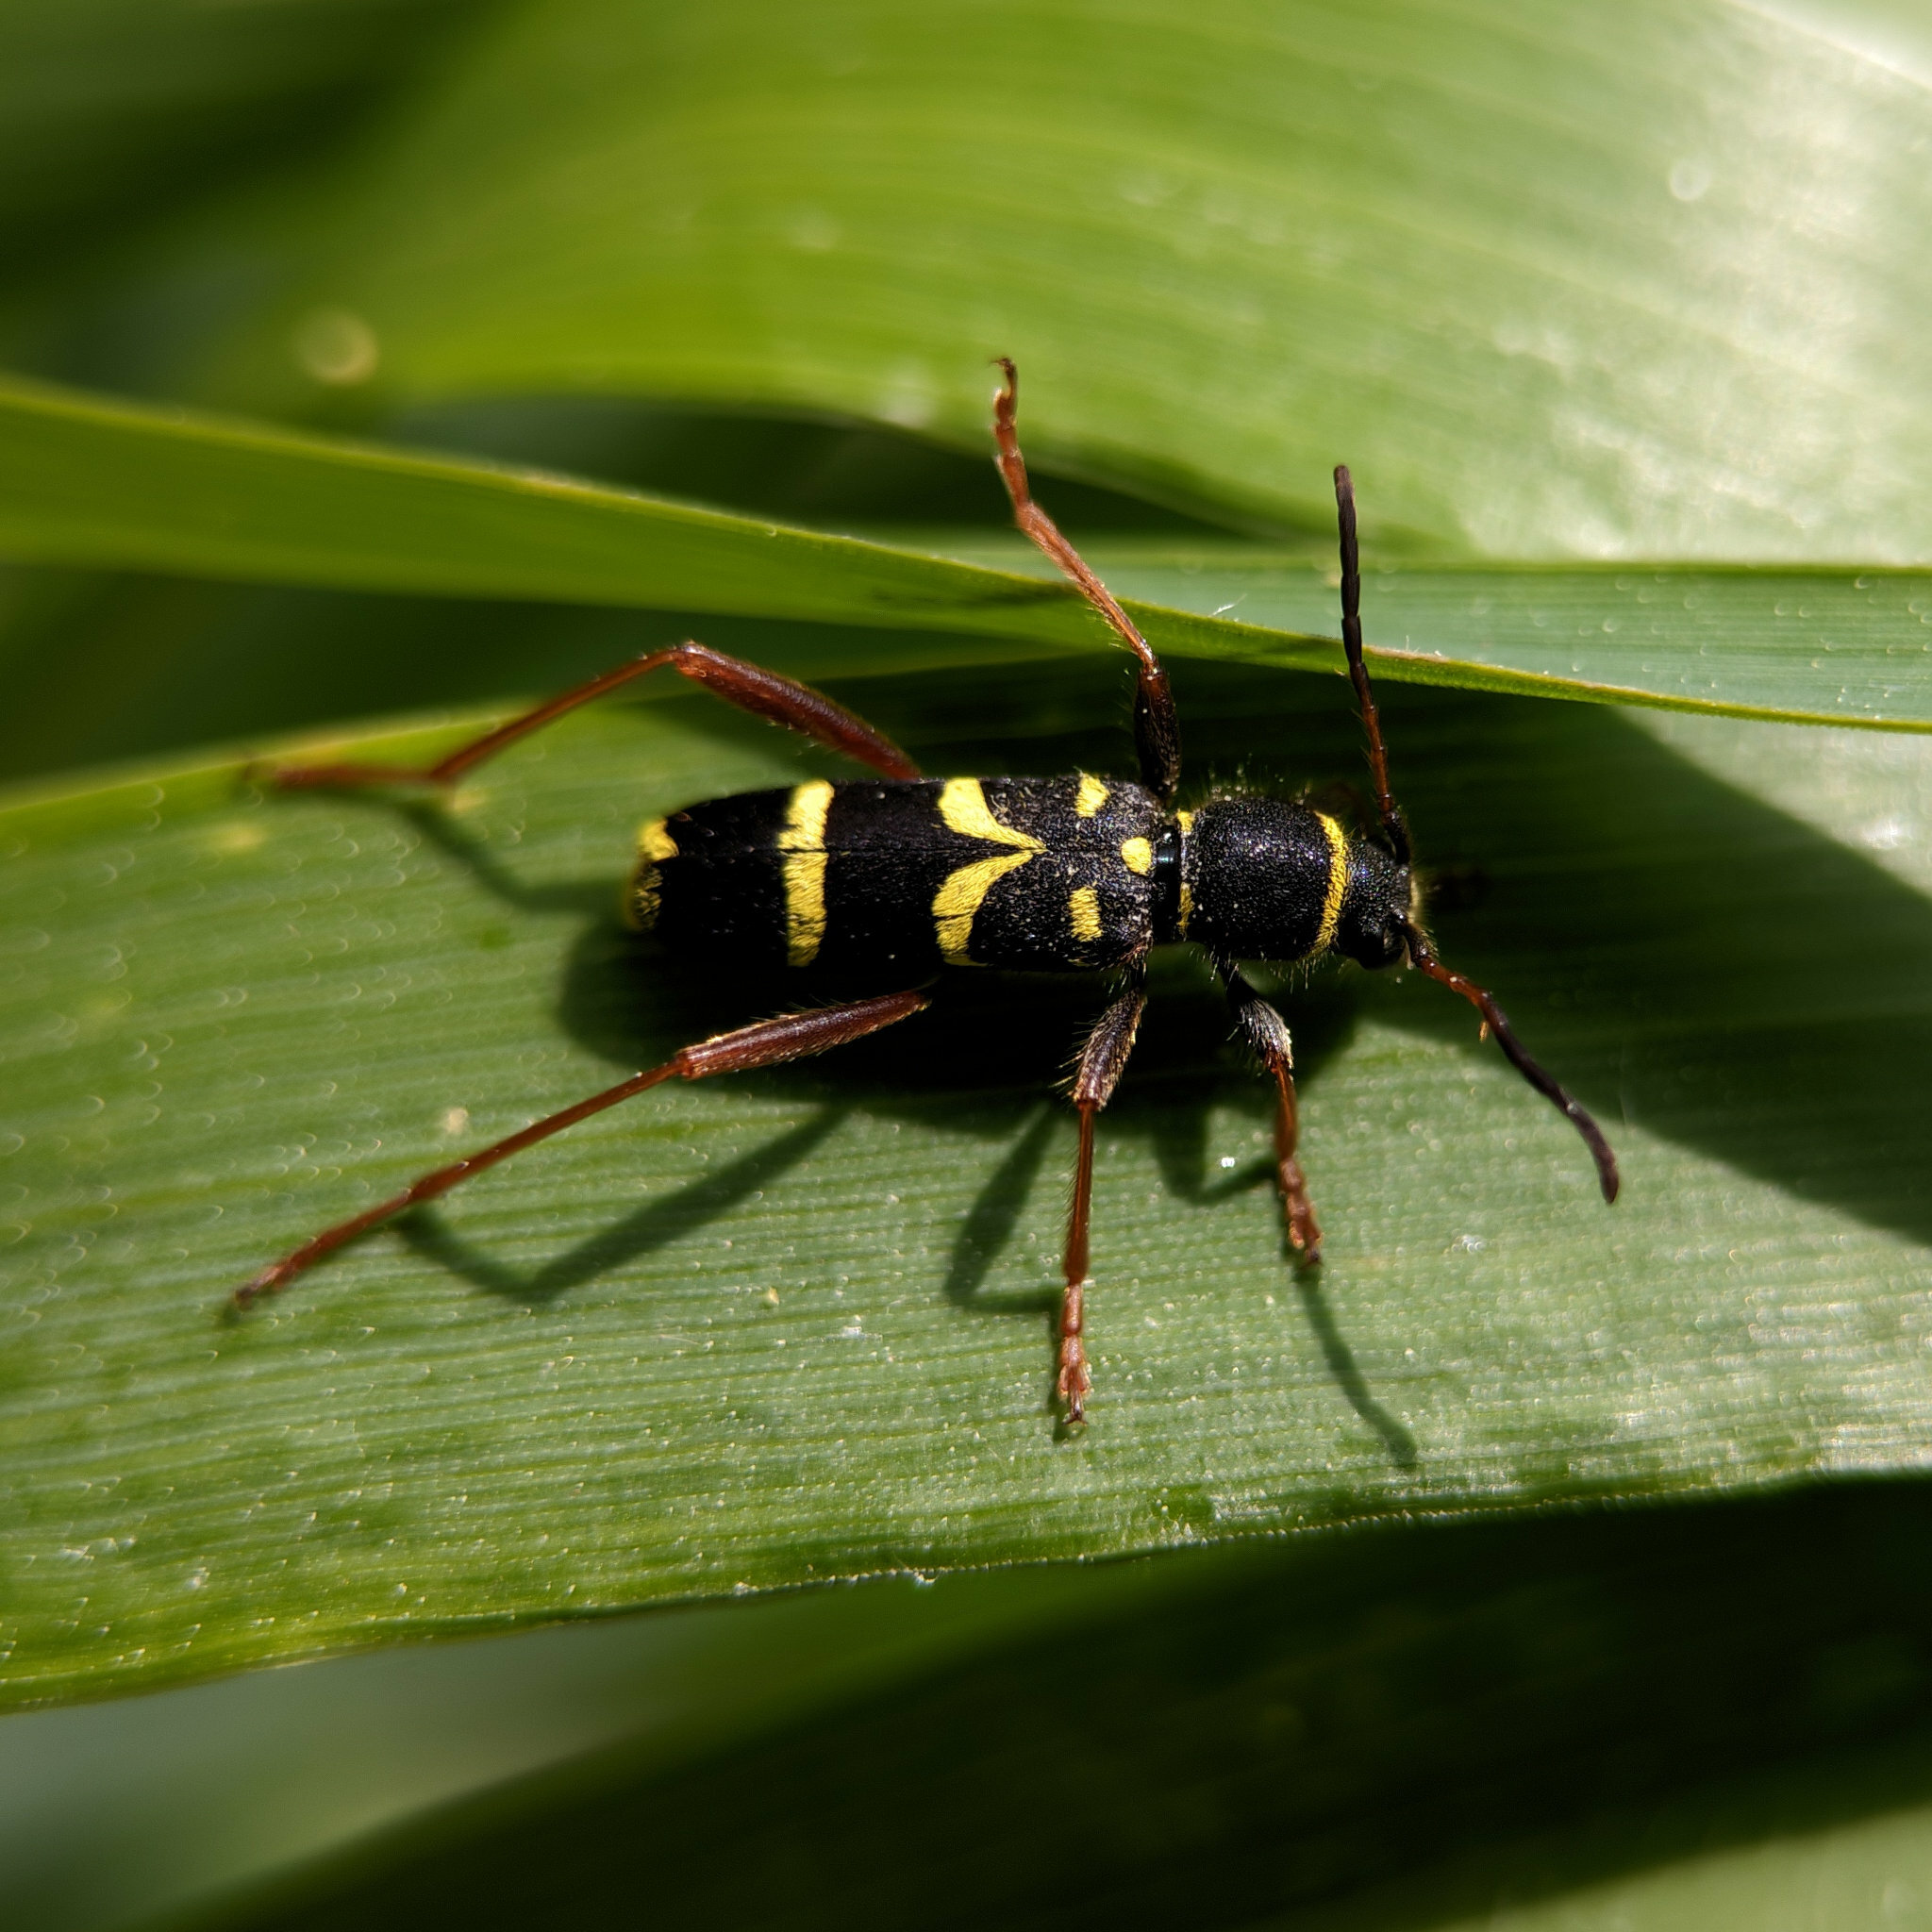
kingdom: Animalia
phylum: Arthropoda
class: Insecta
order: Coleoptera
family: Cerambycidae
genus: Clytus
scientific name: Clytus arietis
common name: Wasp beetle
